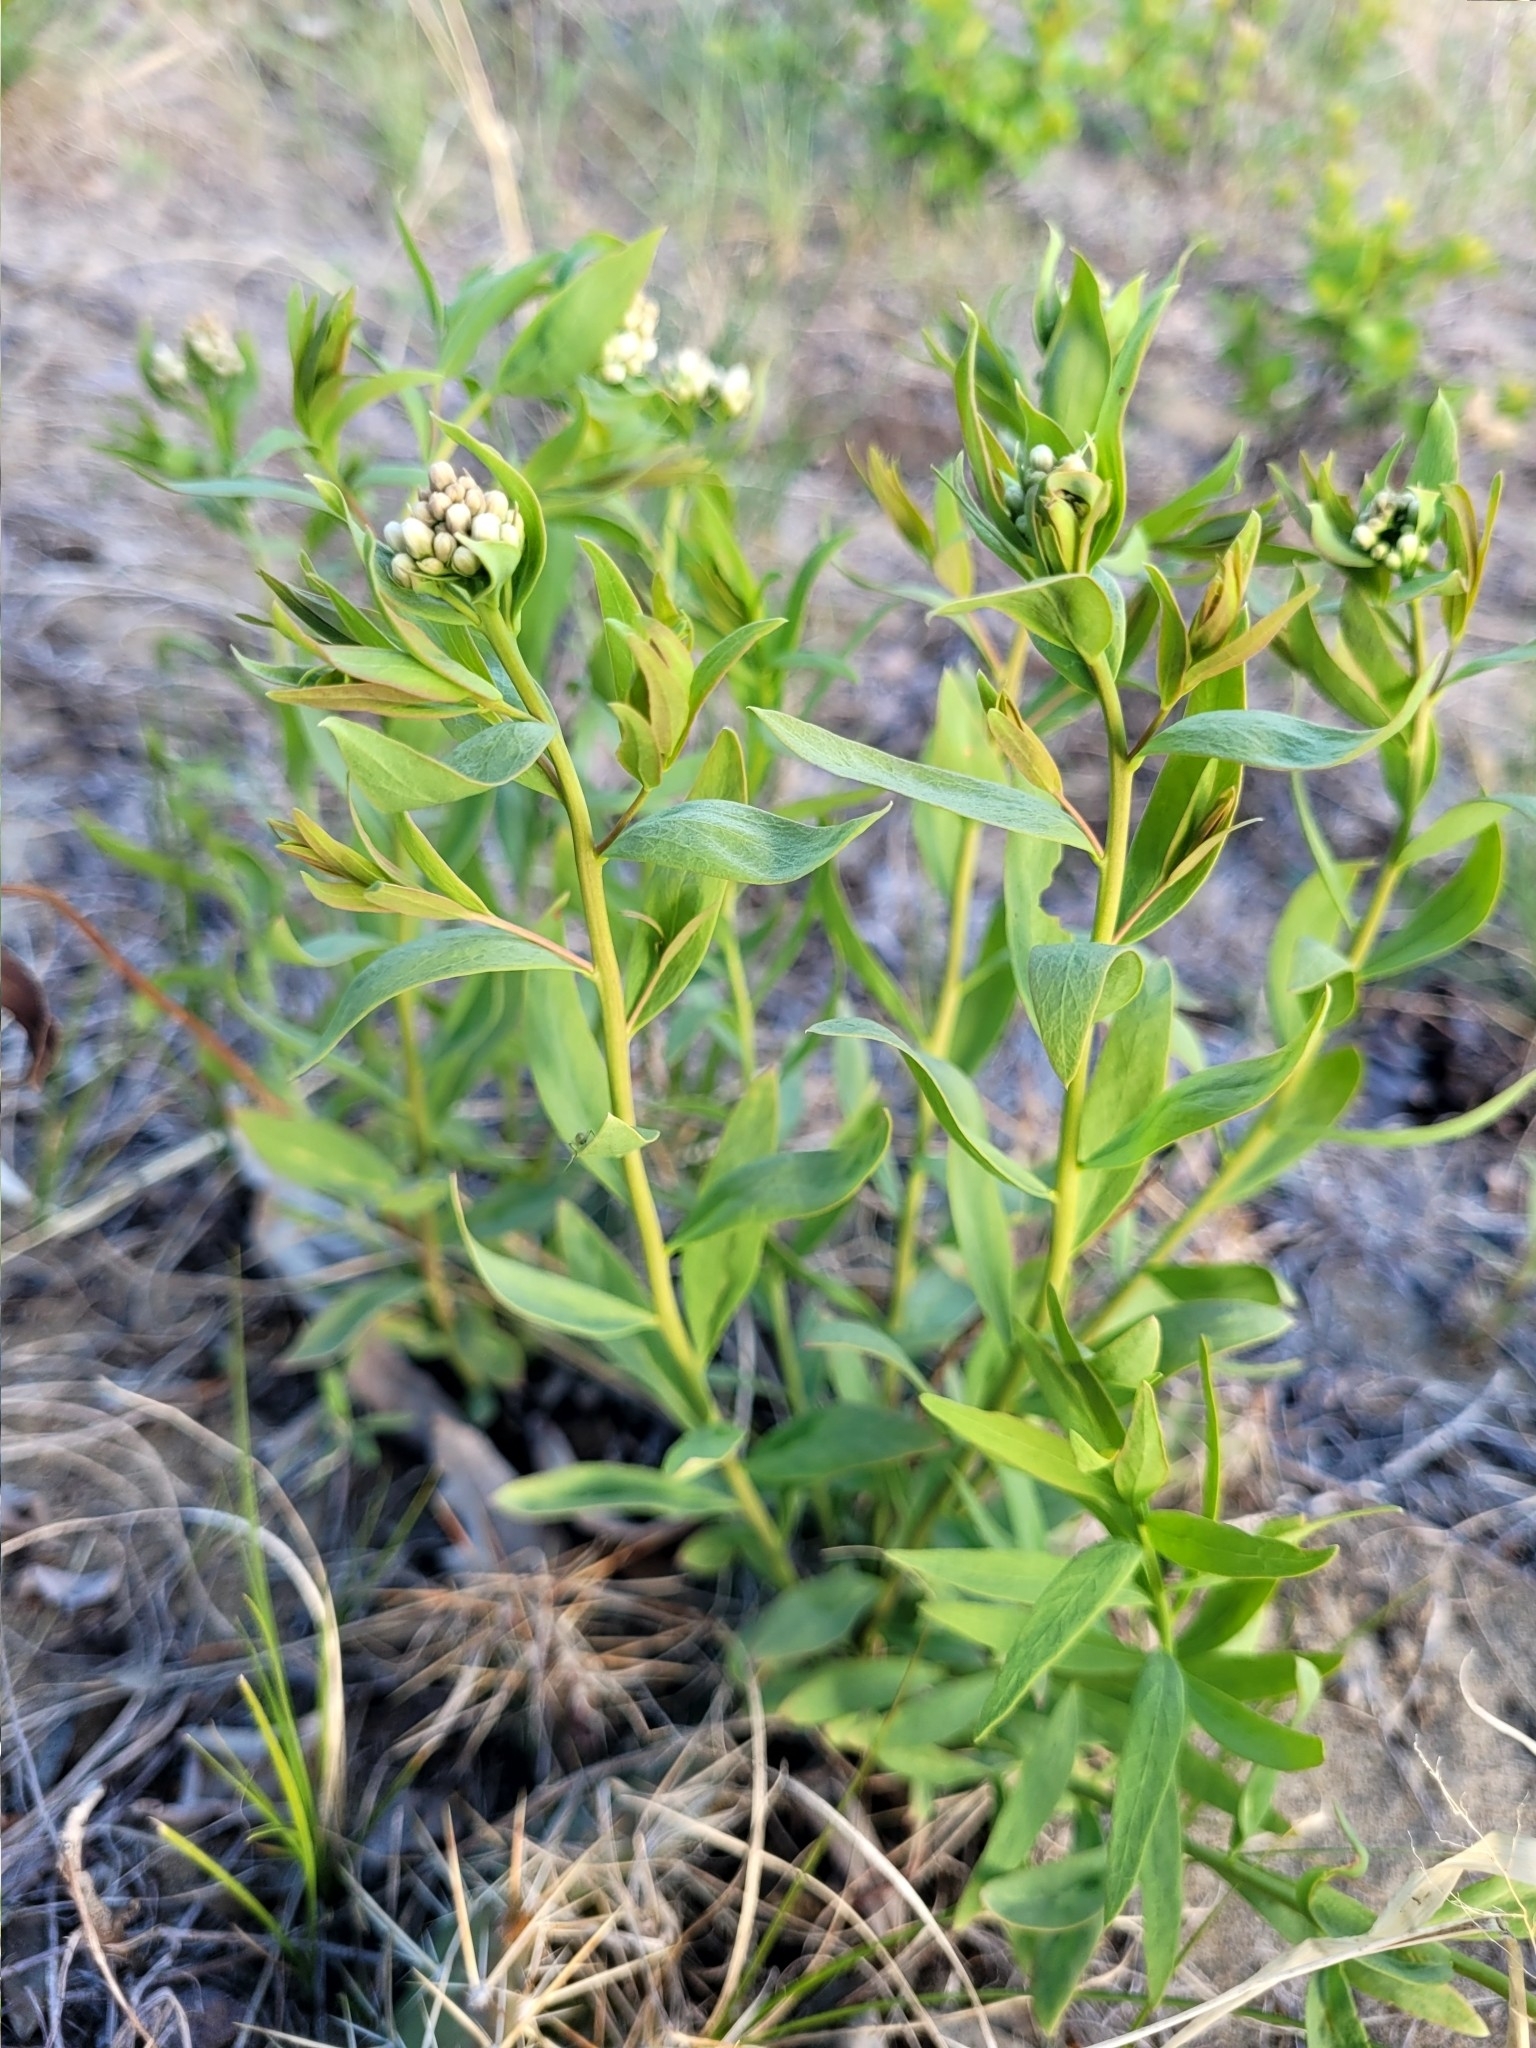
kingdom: Plantae
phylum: Tracheophyta
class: Magnoliopsida
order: Santalales
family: Comandraceae
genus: Comandra
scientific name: Comandra umbellata
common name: Bastard toadflax
